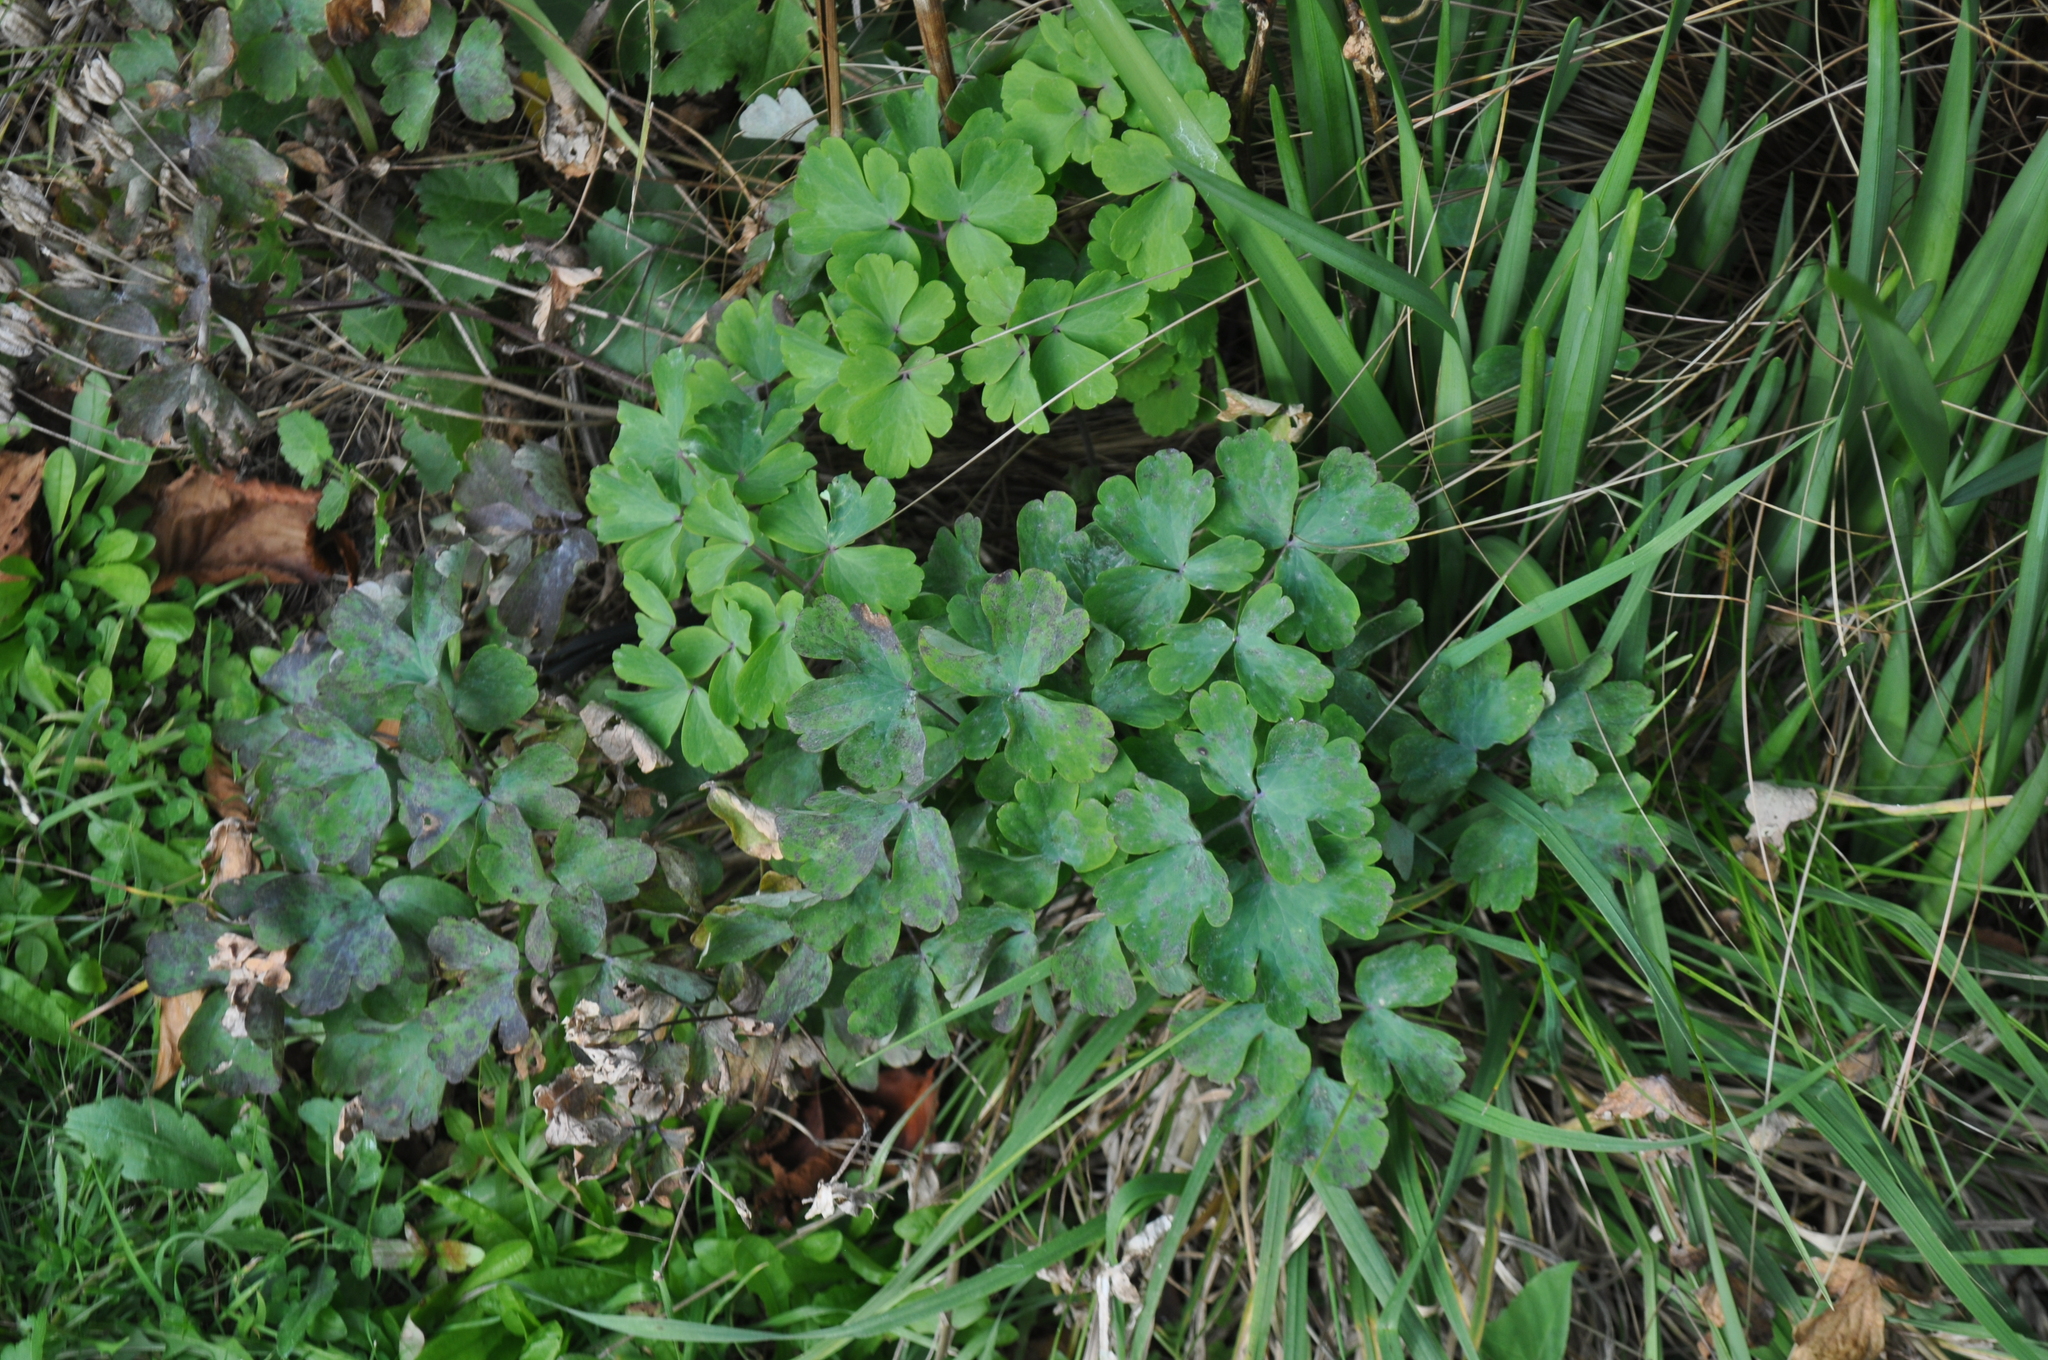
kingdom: Plantae
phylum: Tracheophyta
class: Magnoliopsida
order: Ranunculales
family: Ranunculaceae
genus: Aquilegia
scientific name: Aquilegia vulgaris
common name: Columbine
